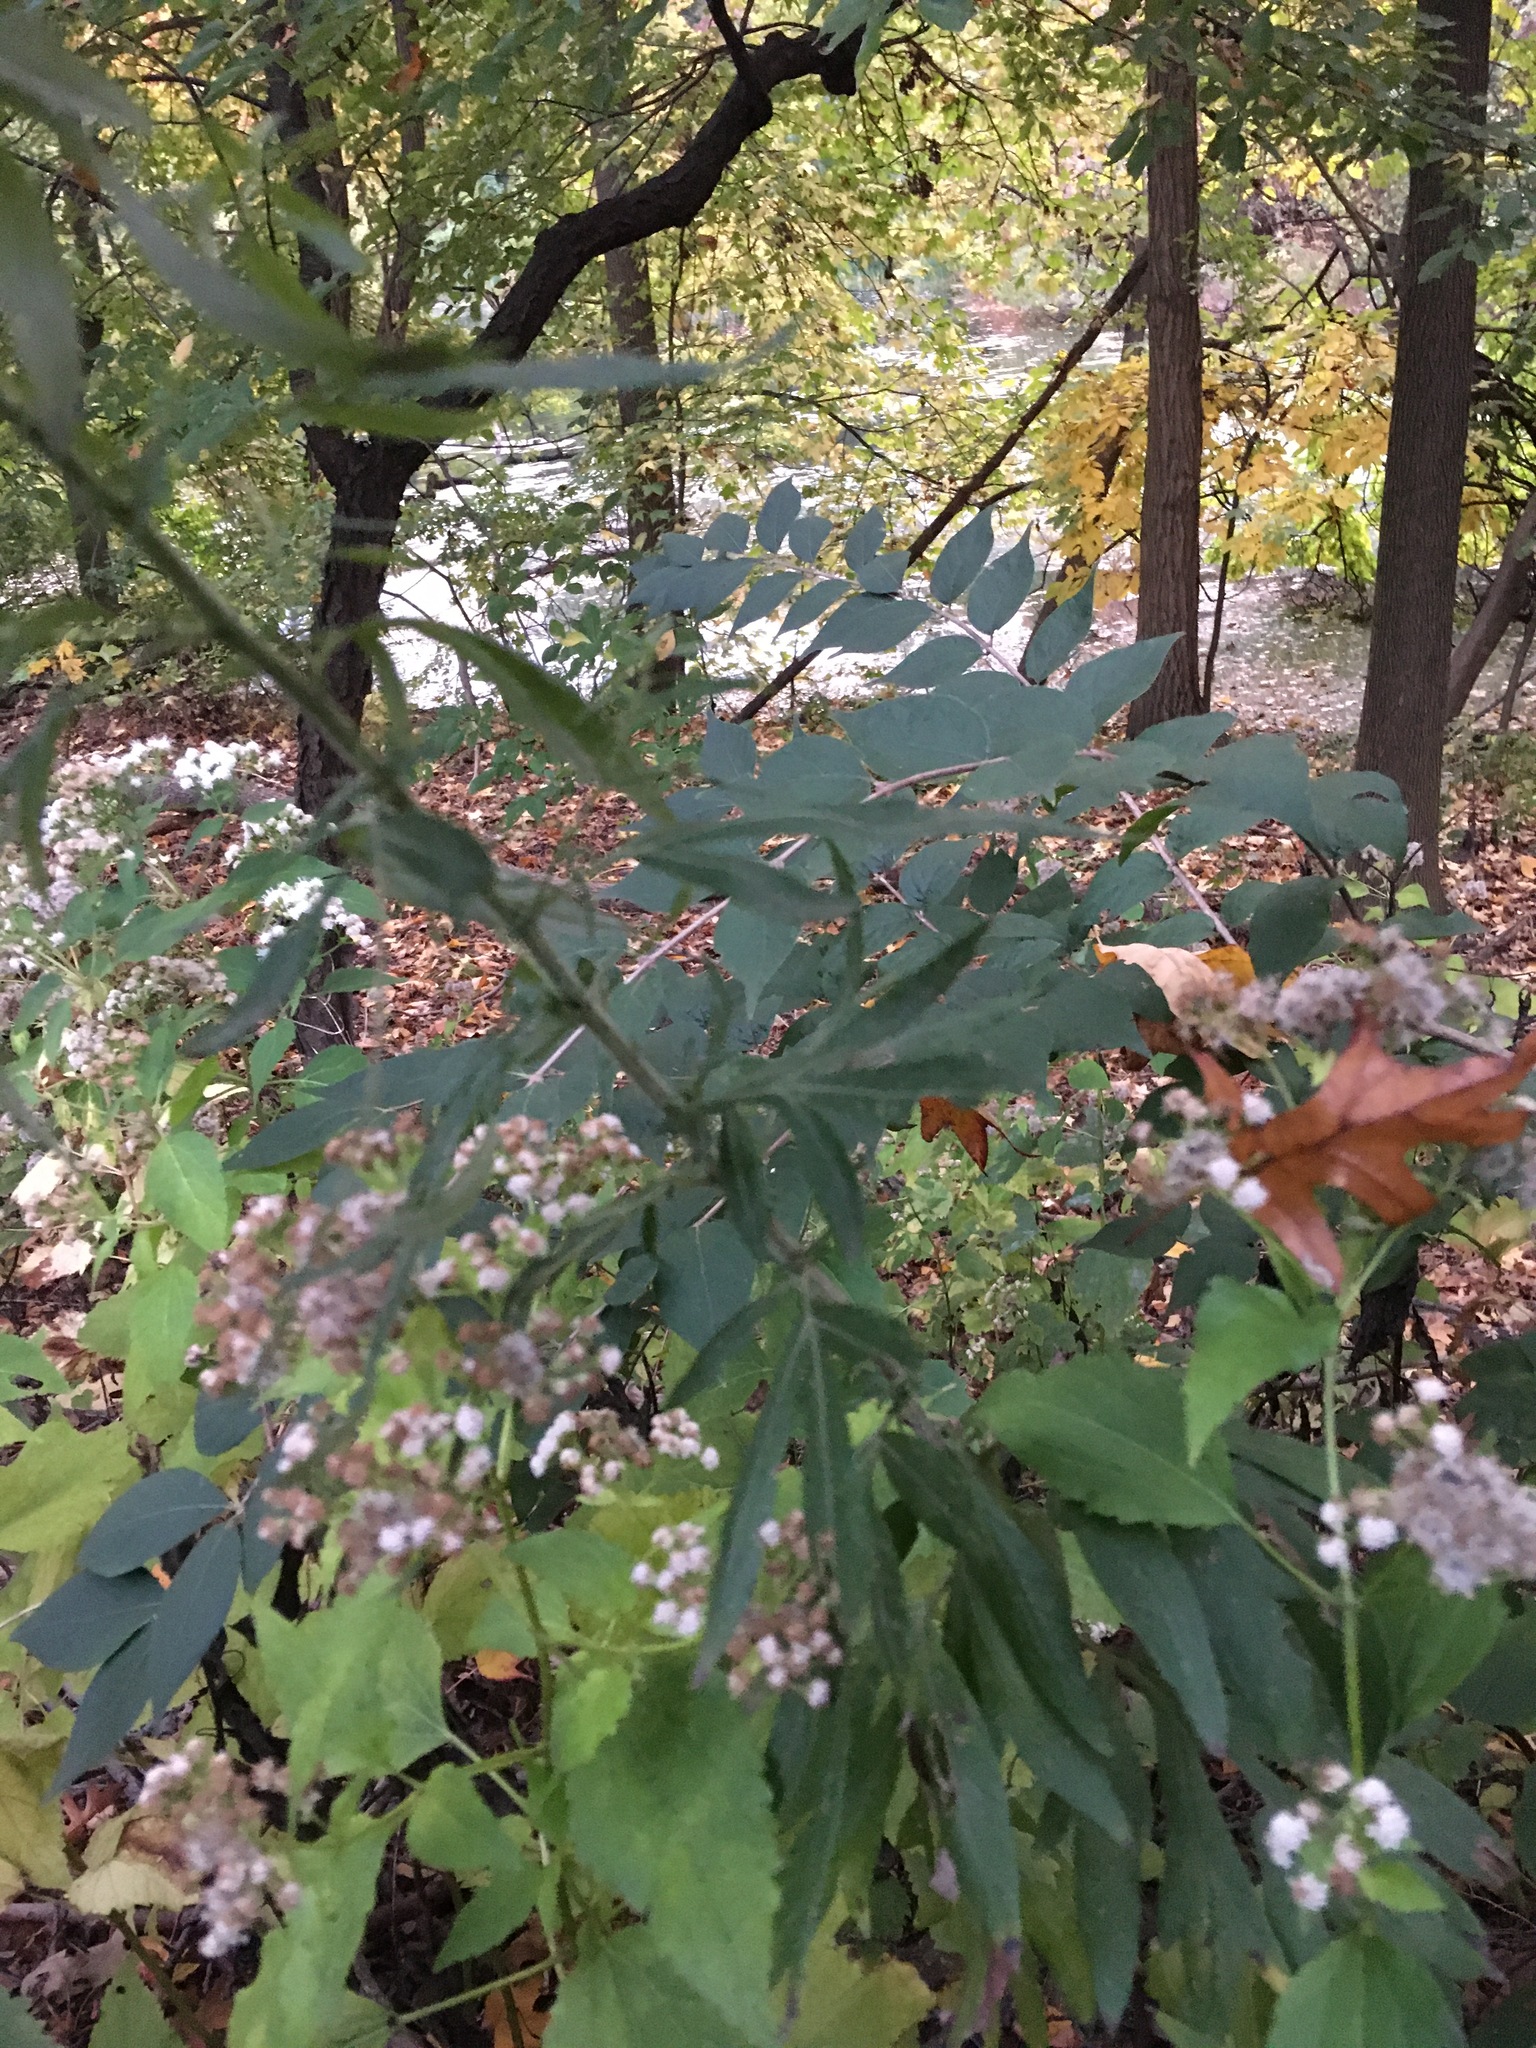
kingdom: Plantae
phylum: Tracheophyta
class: Magnoliopsida
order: Asterales
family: Asteraceae
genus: Artemisia
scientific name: Artemisia vulgaris
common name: Mugwort
